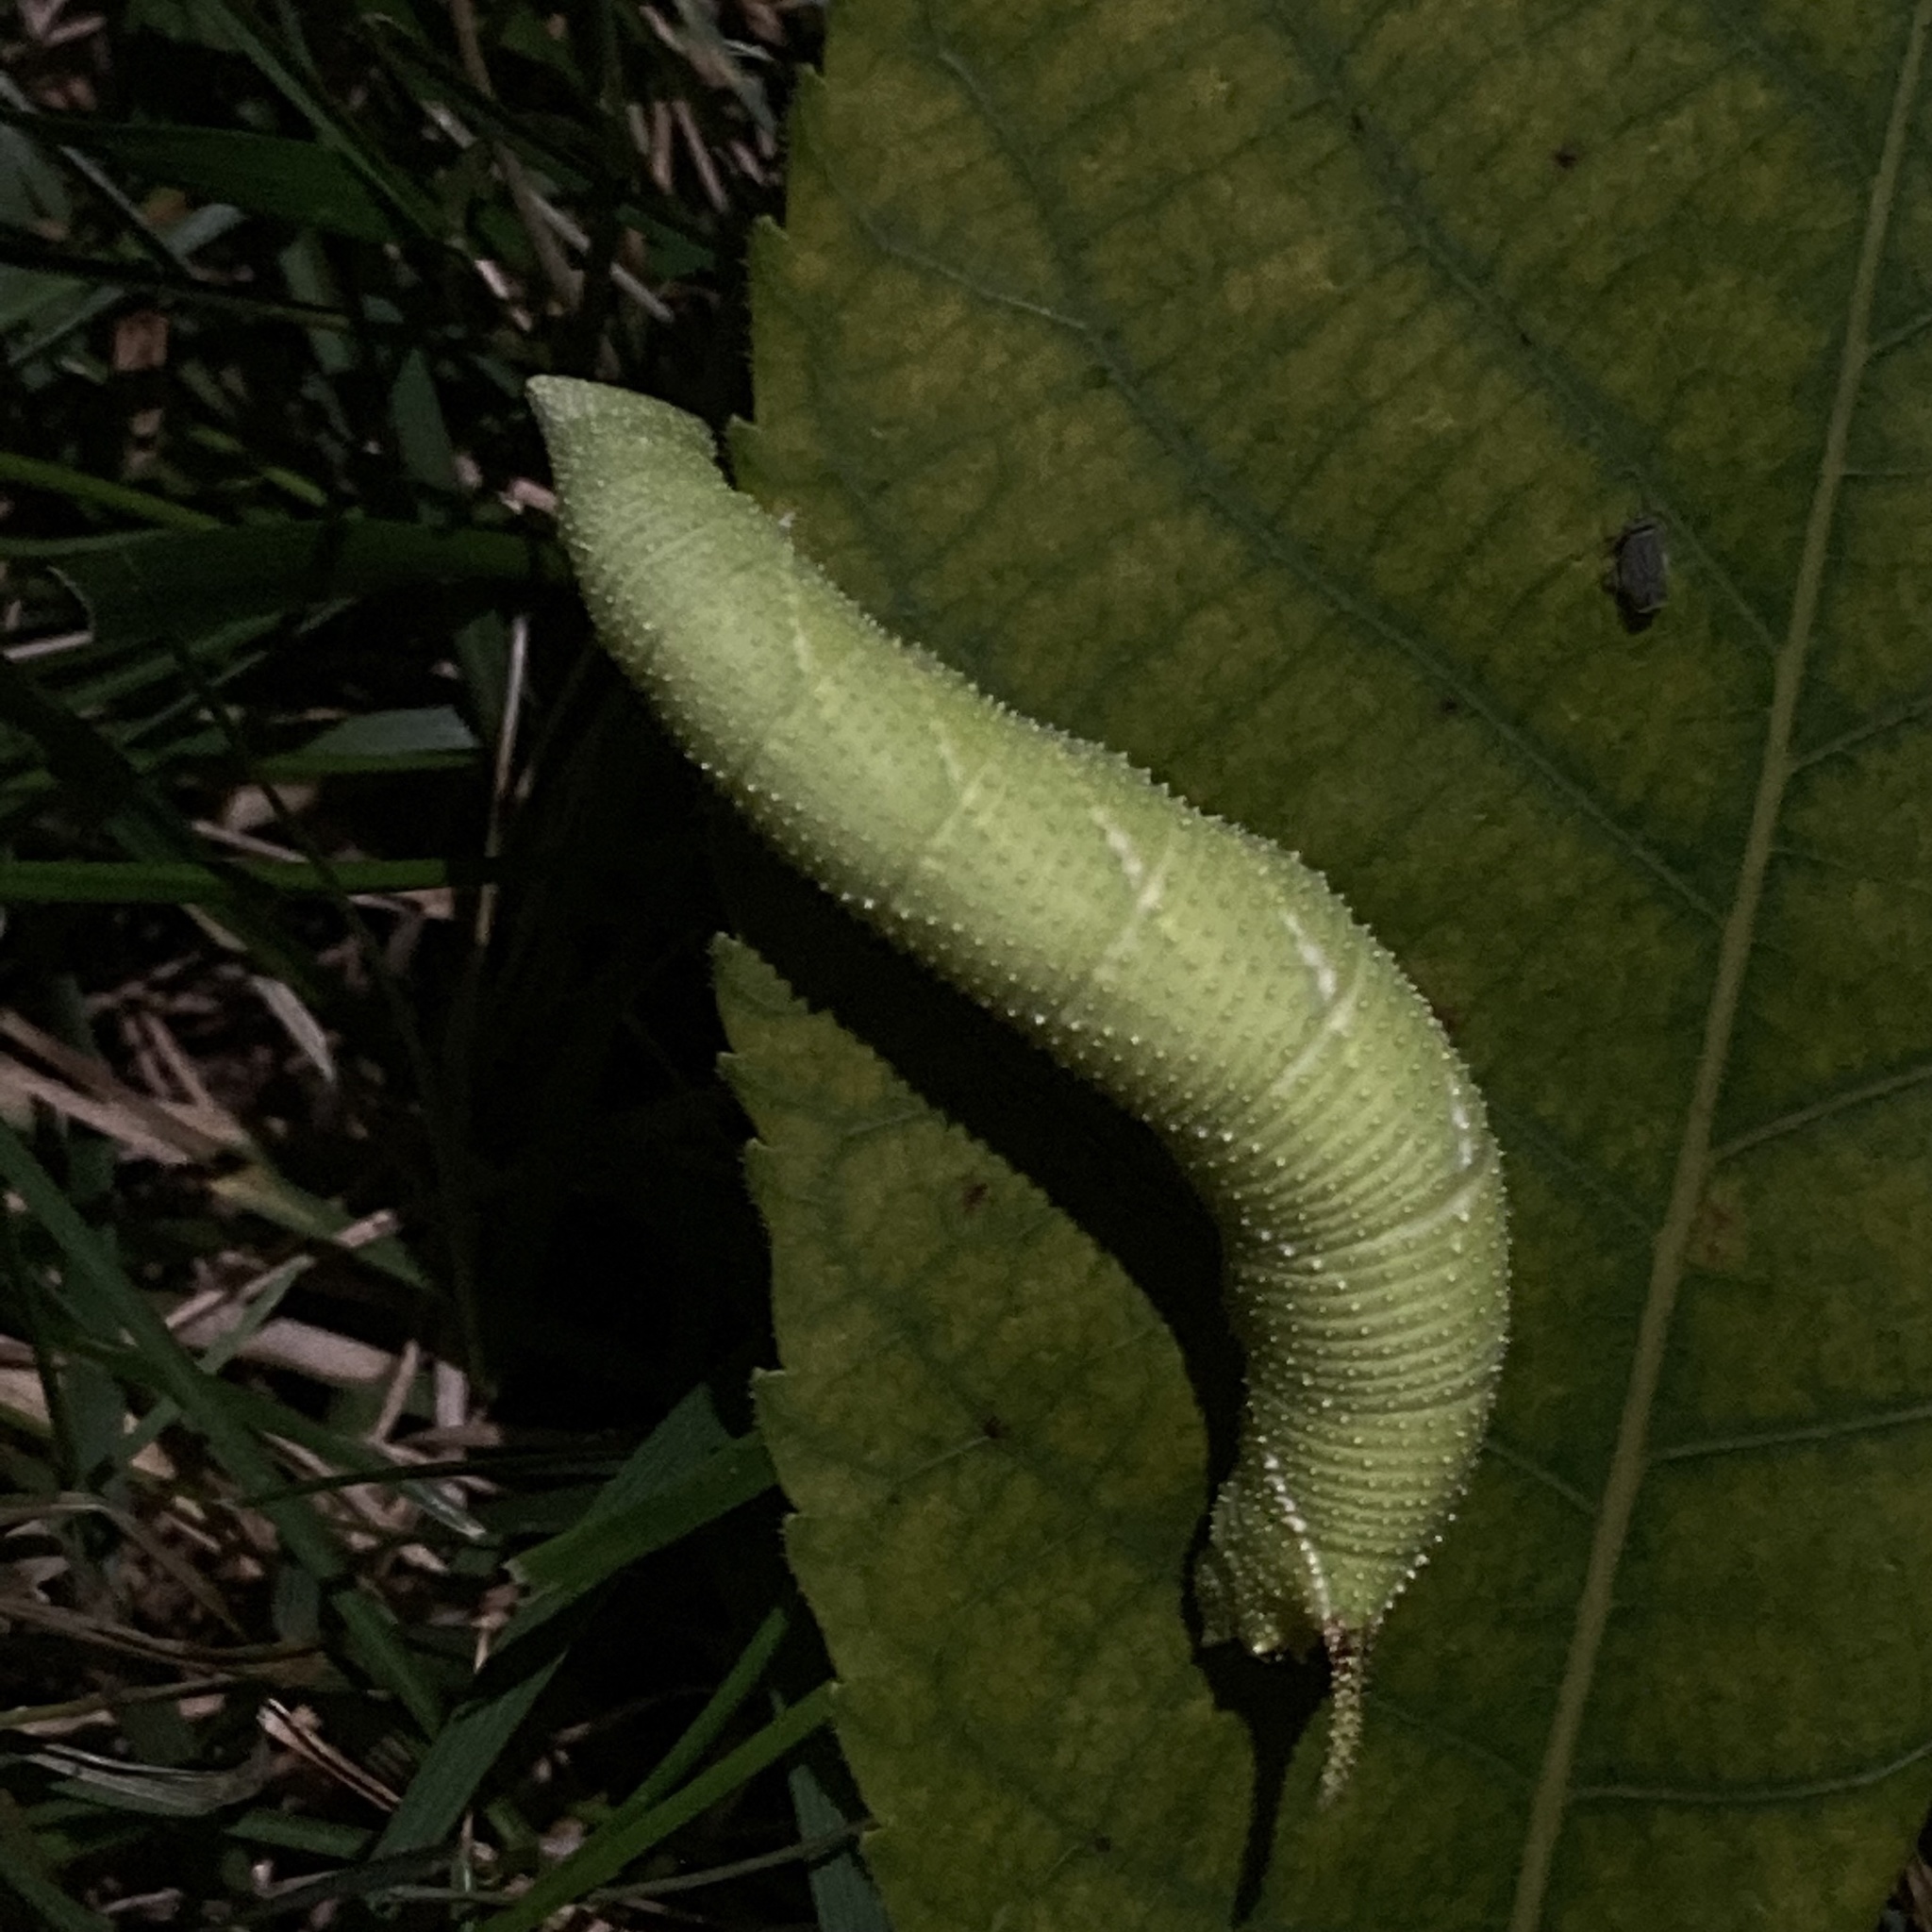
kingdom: Animalia
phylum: Arthropoda
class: Insecta
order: Lepidoptera
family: Sphingidae
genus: Amorpha
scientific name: Amorpha juglandis
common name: Walnut sphinx
